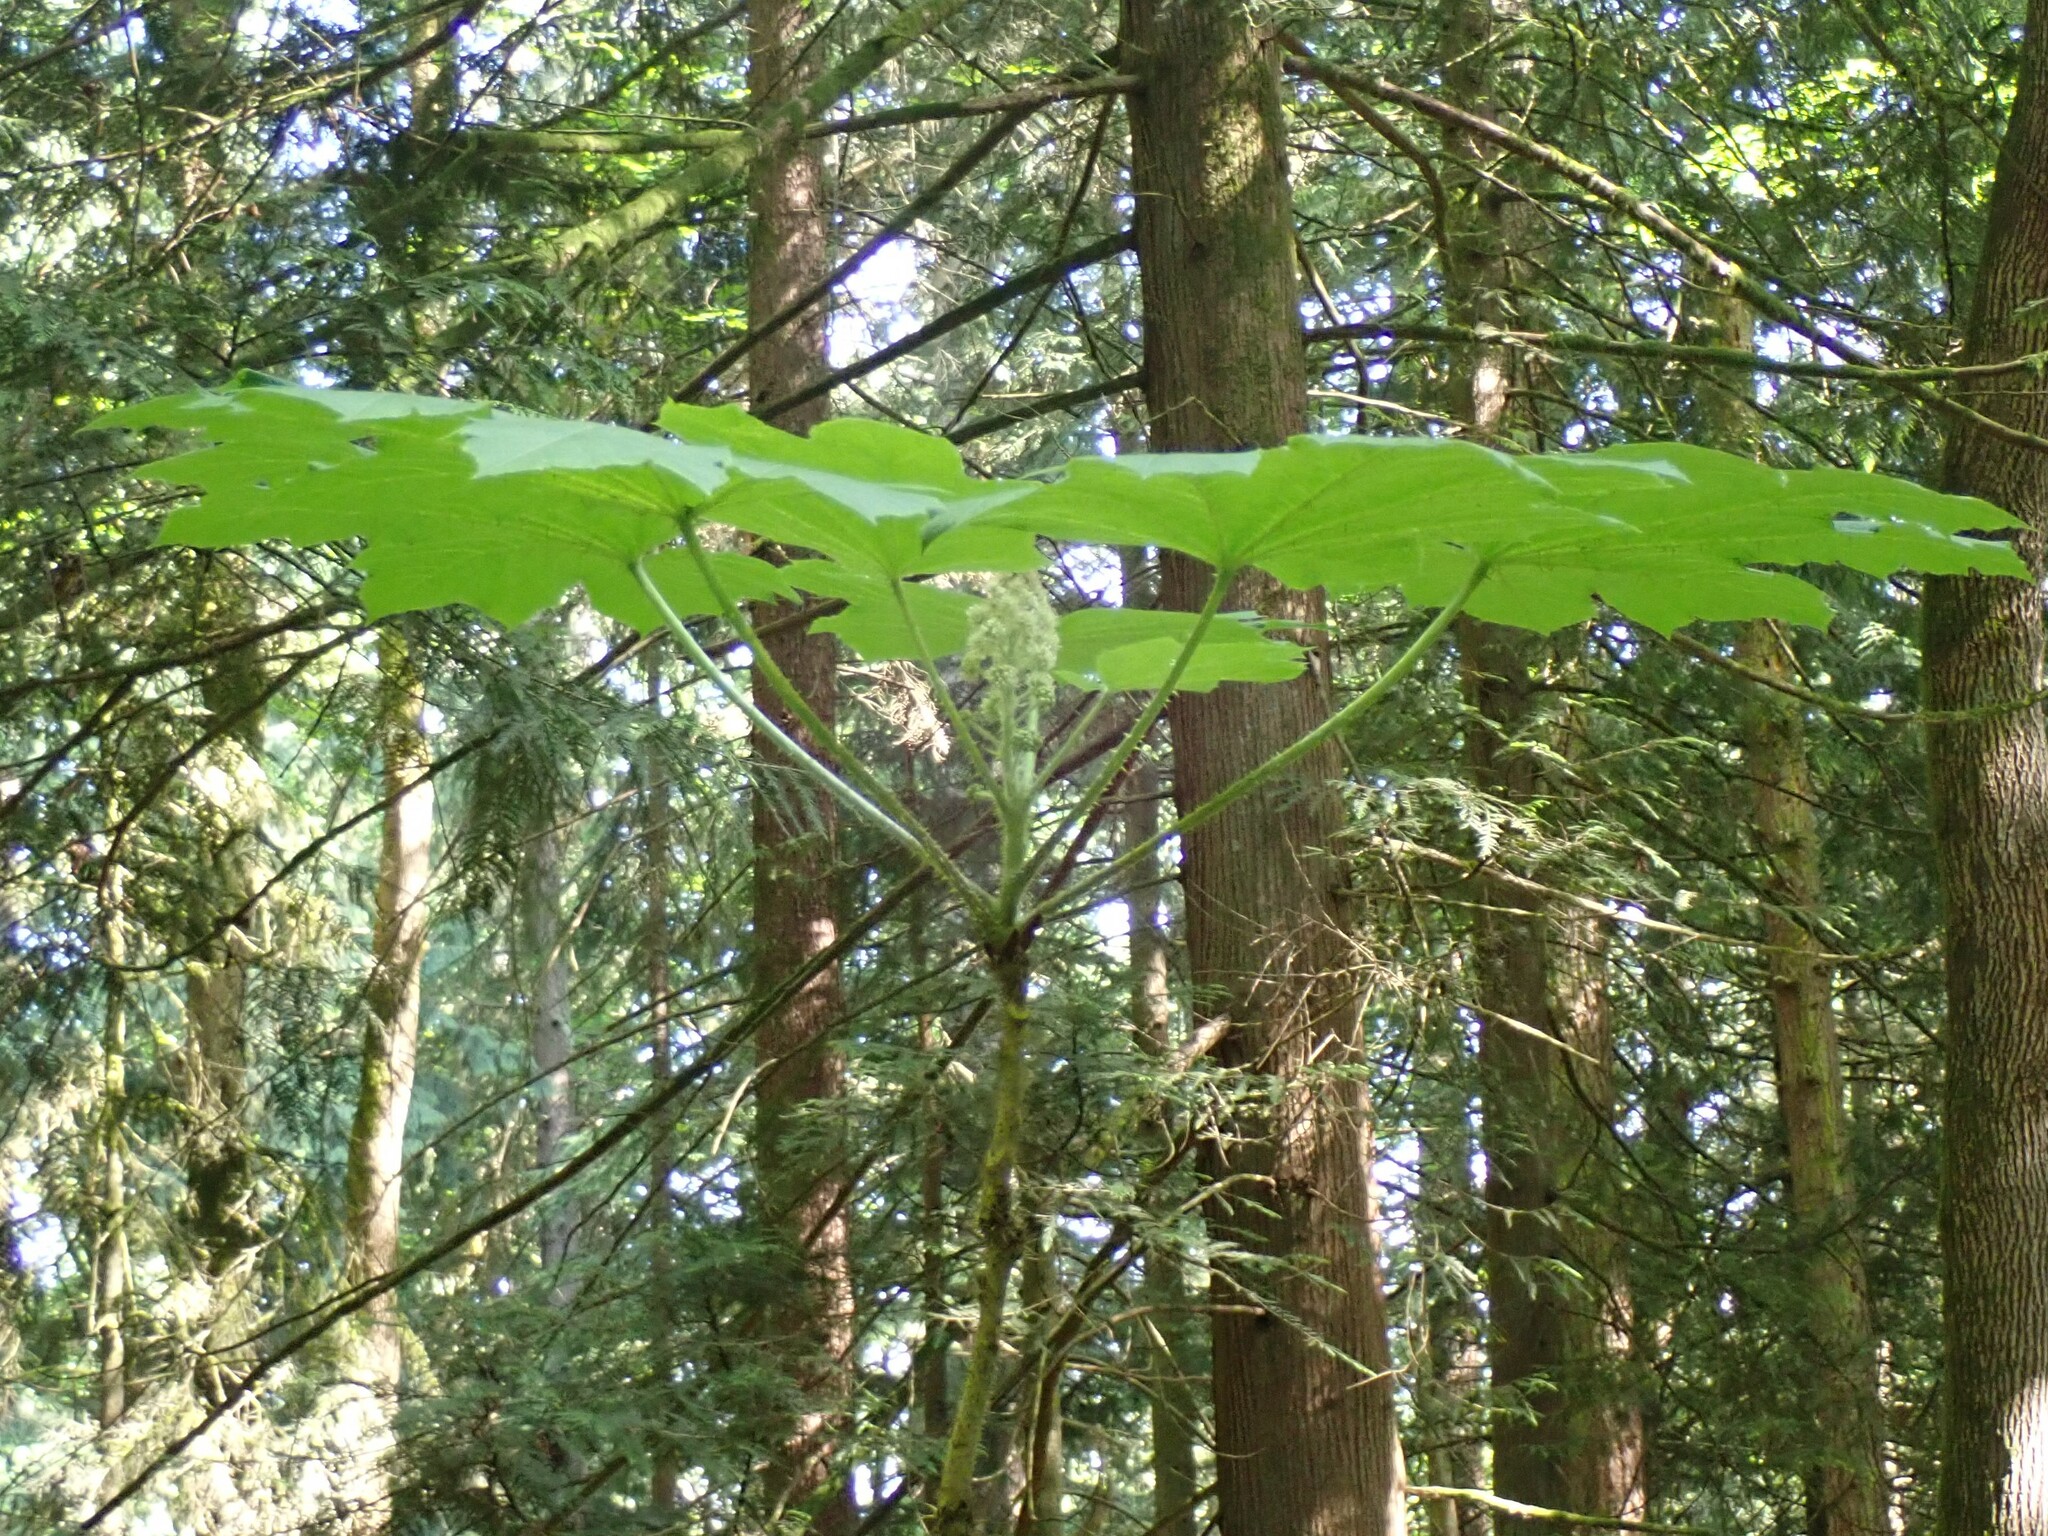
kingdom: Plantae
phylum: Tracheophyta
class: Magnoliopsida
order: Apiales
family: Araliaceae
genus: Oplopanax
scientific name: Oplopanax horridus
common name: Devil's walking-stick
